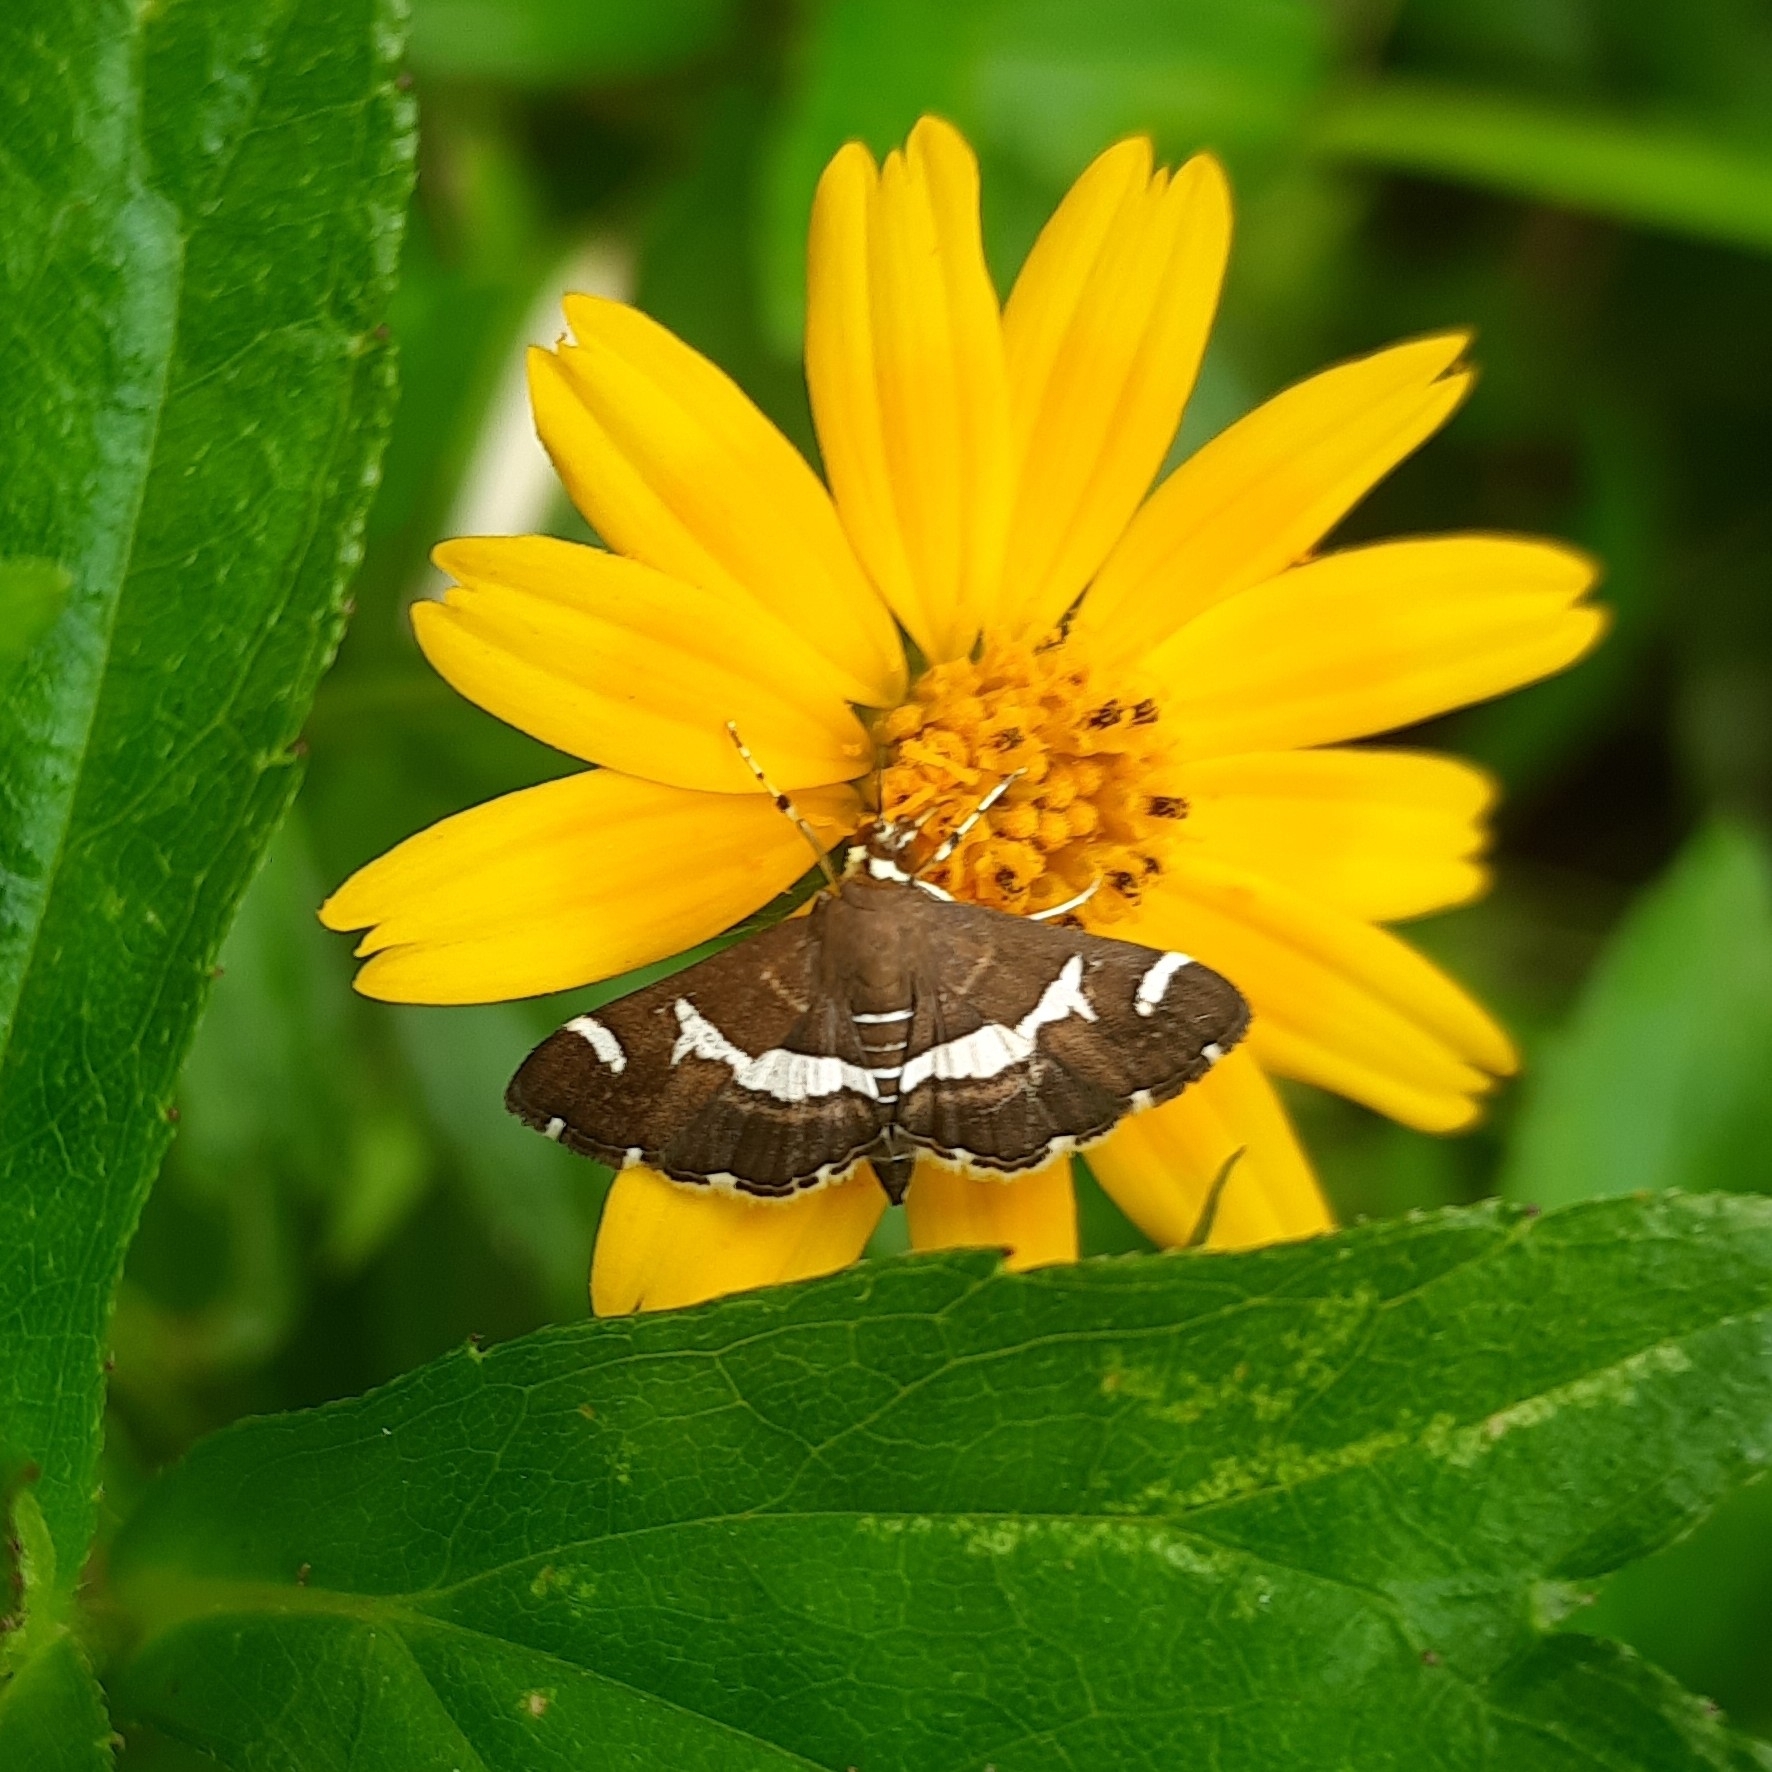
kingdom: Animalia
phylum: Arthropoda
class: Insecta
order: Lepidoptera
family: Crambidae
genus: Spoladea
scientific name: Spoladea recurvalis
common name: Beet webworm moth
